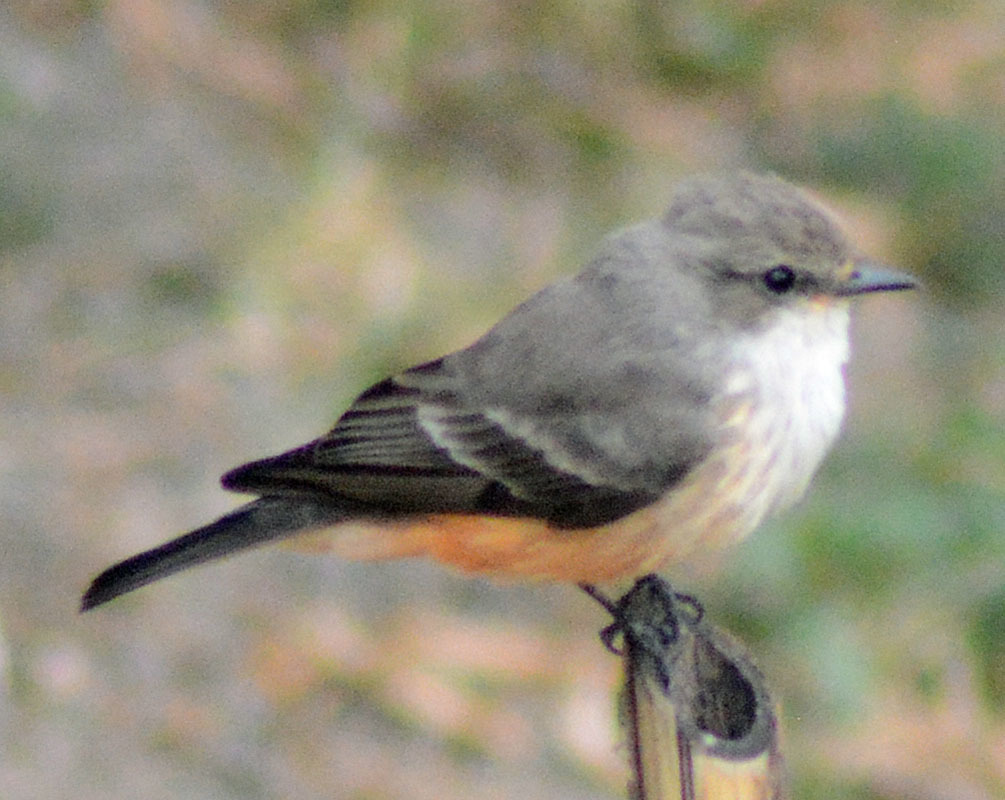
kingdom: Animalia
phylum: Chordata
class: Aves
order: Passeriformes
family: Tyrannidae
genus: Pyrocephalus
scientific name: Pyrocephalus rubinus
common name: Vermilion flycatcher
